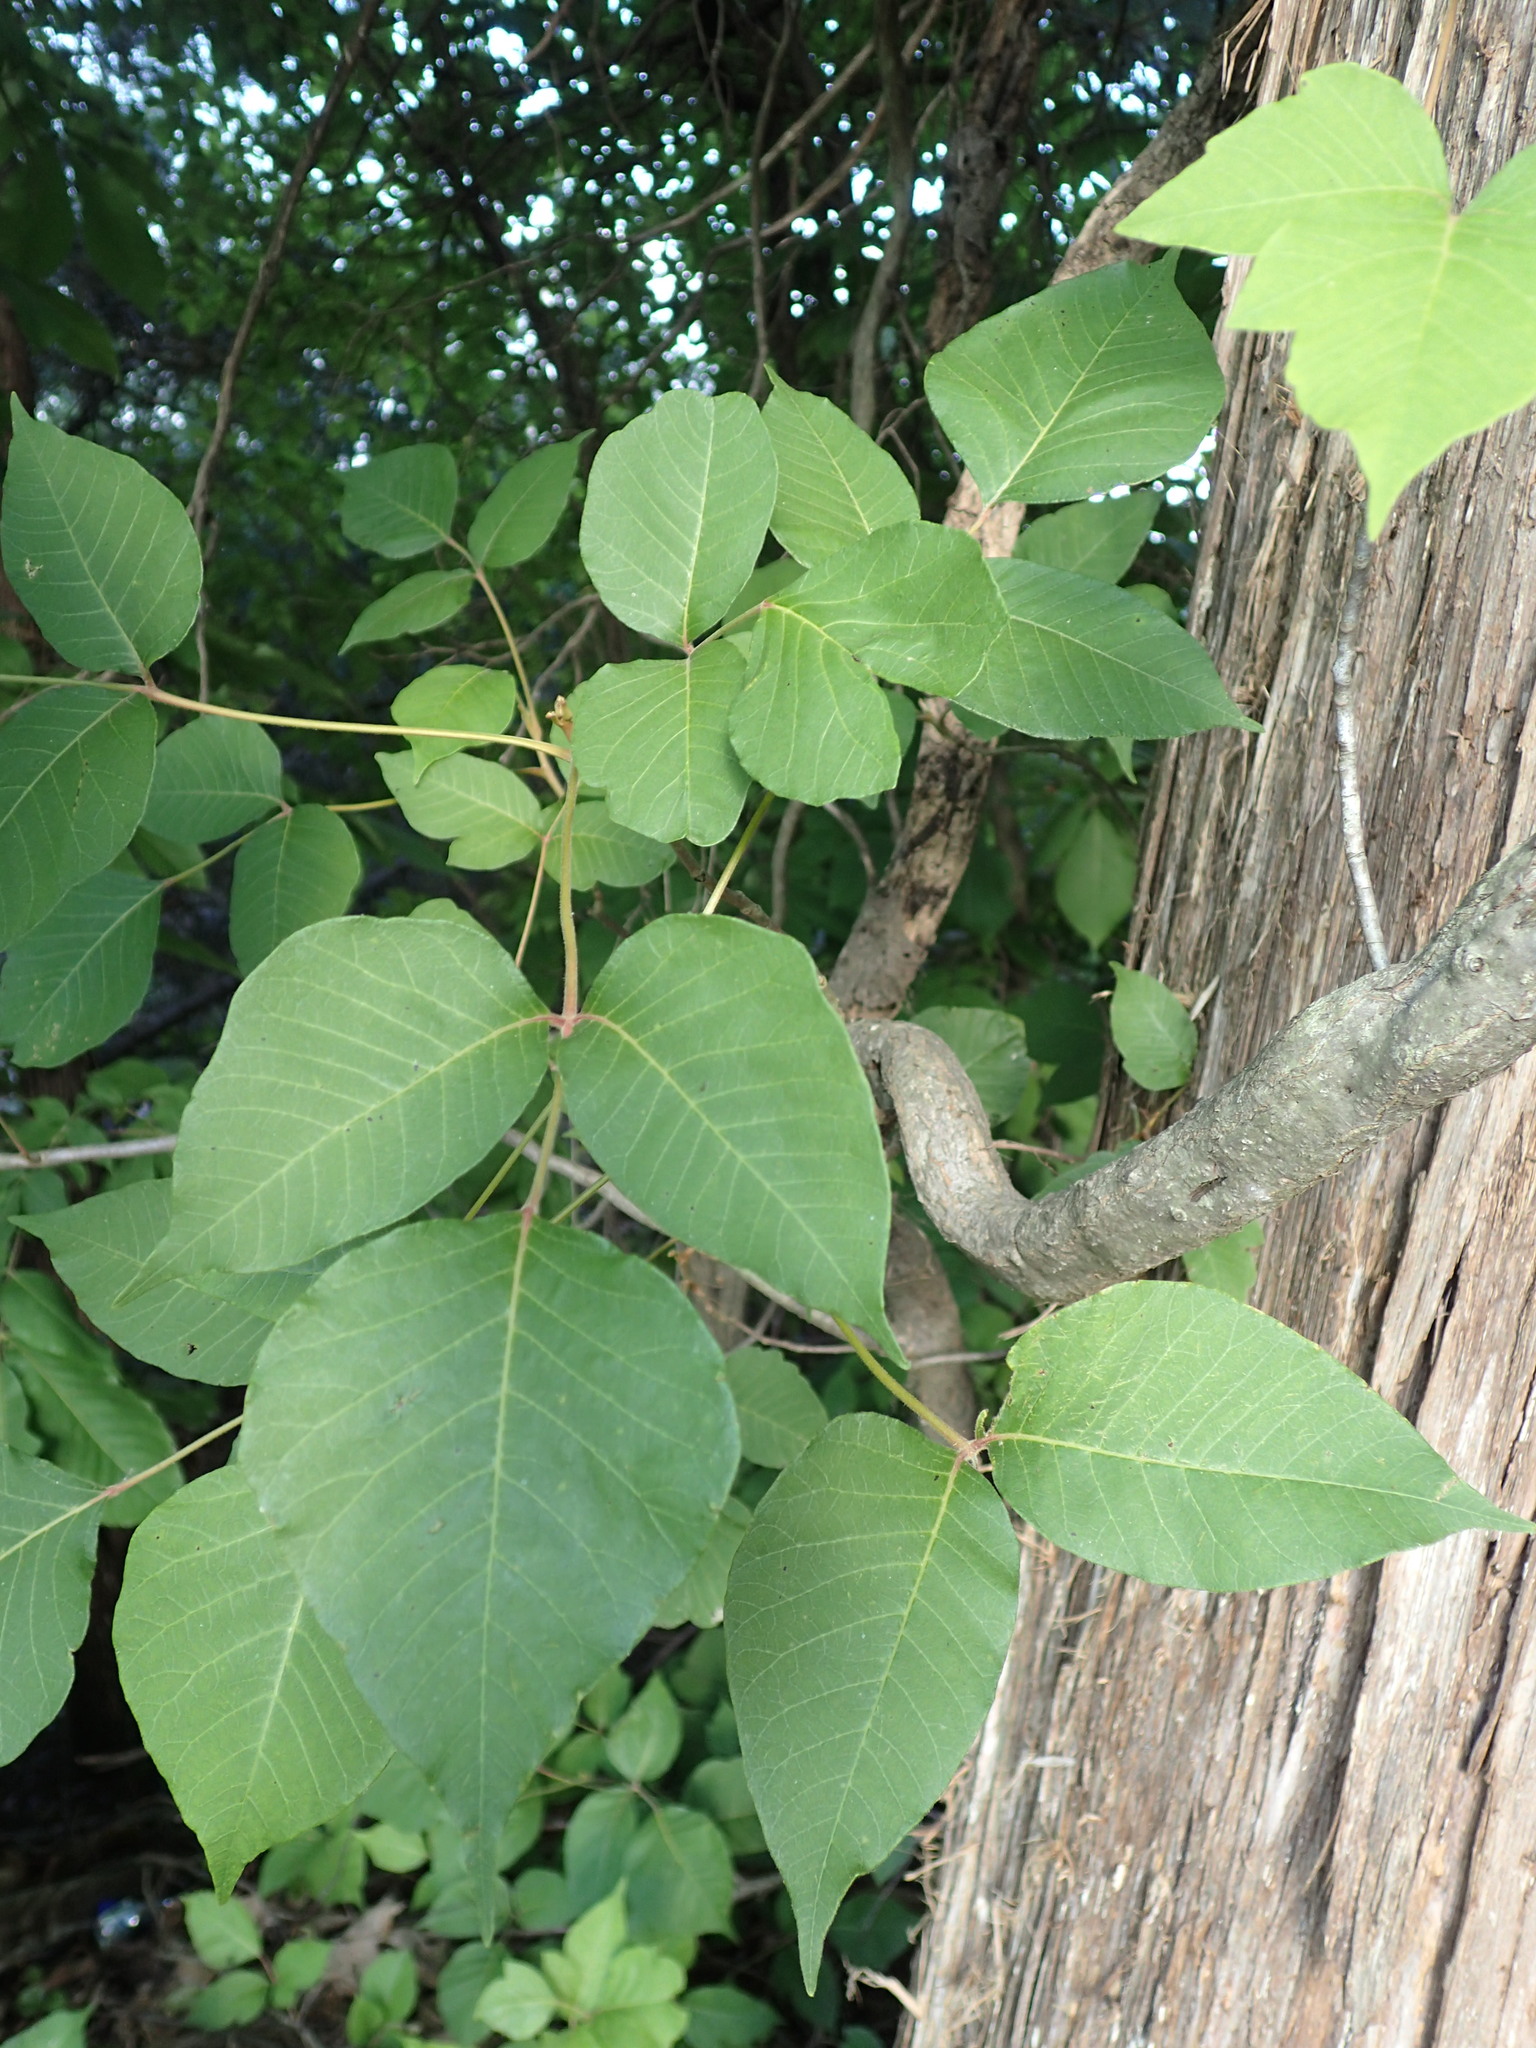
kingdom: Plantae
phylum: Tracheophyta
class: Magnoliopsida
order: Sapindales
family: Anacardiaceae
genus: Toxicodendron
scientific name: Toxicodendron radicans
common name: Poison ivy
